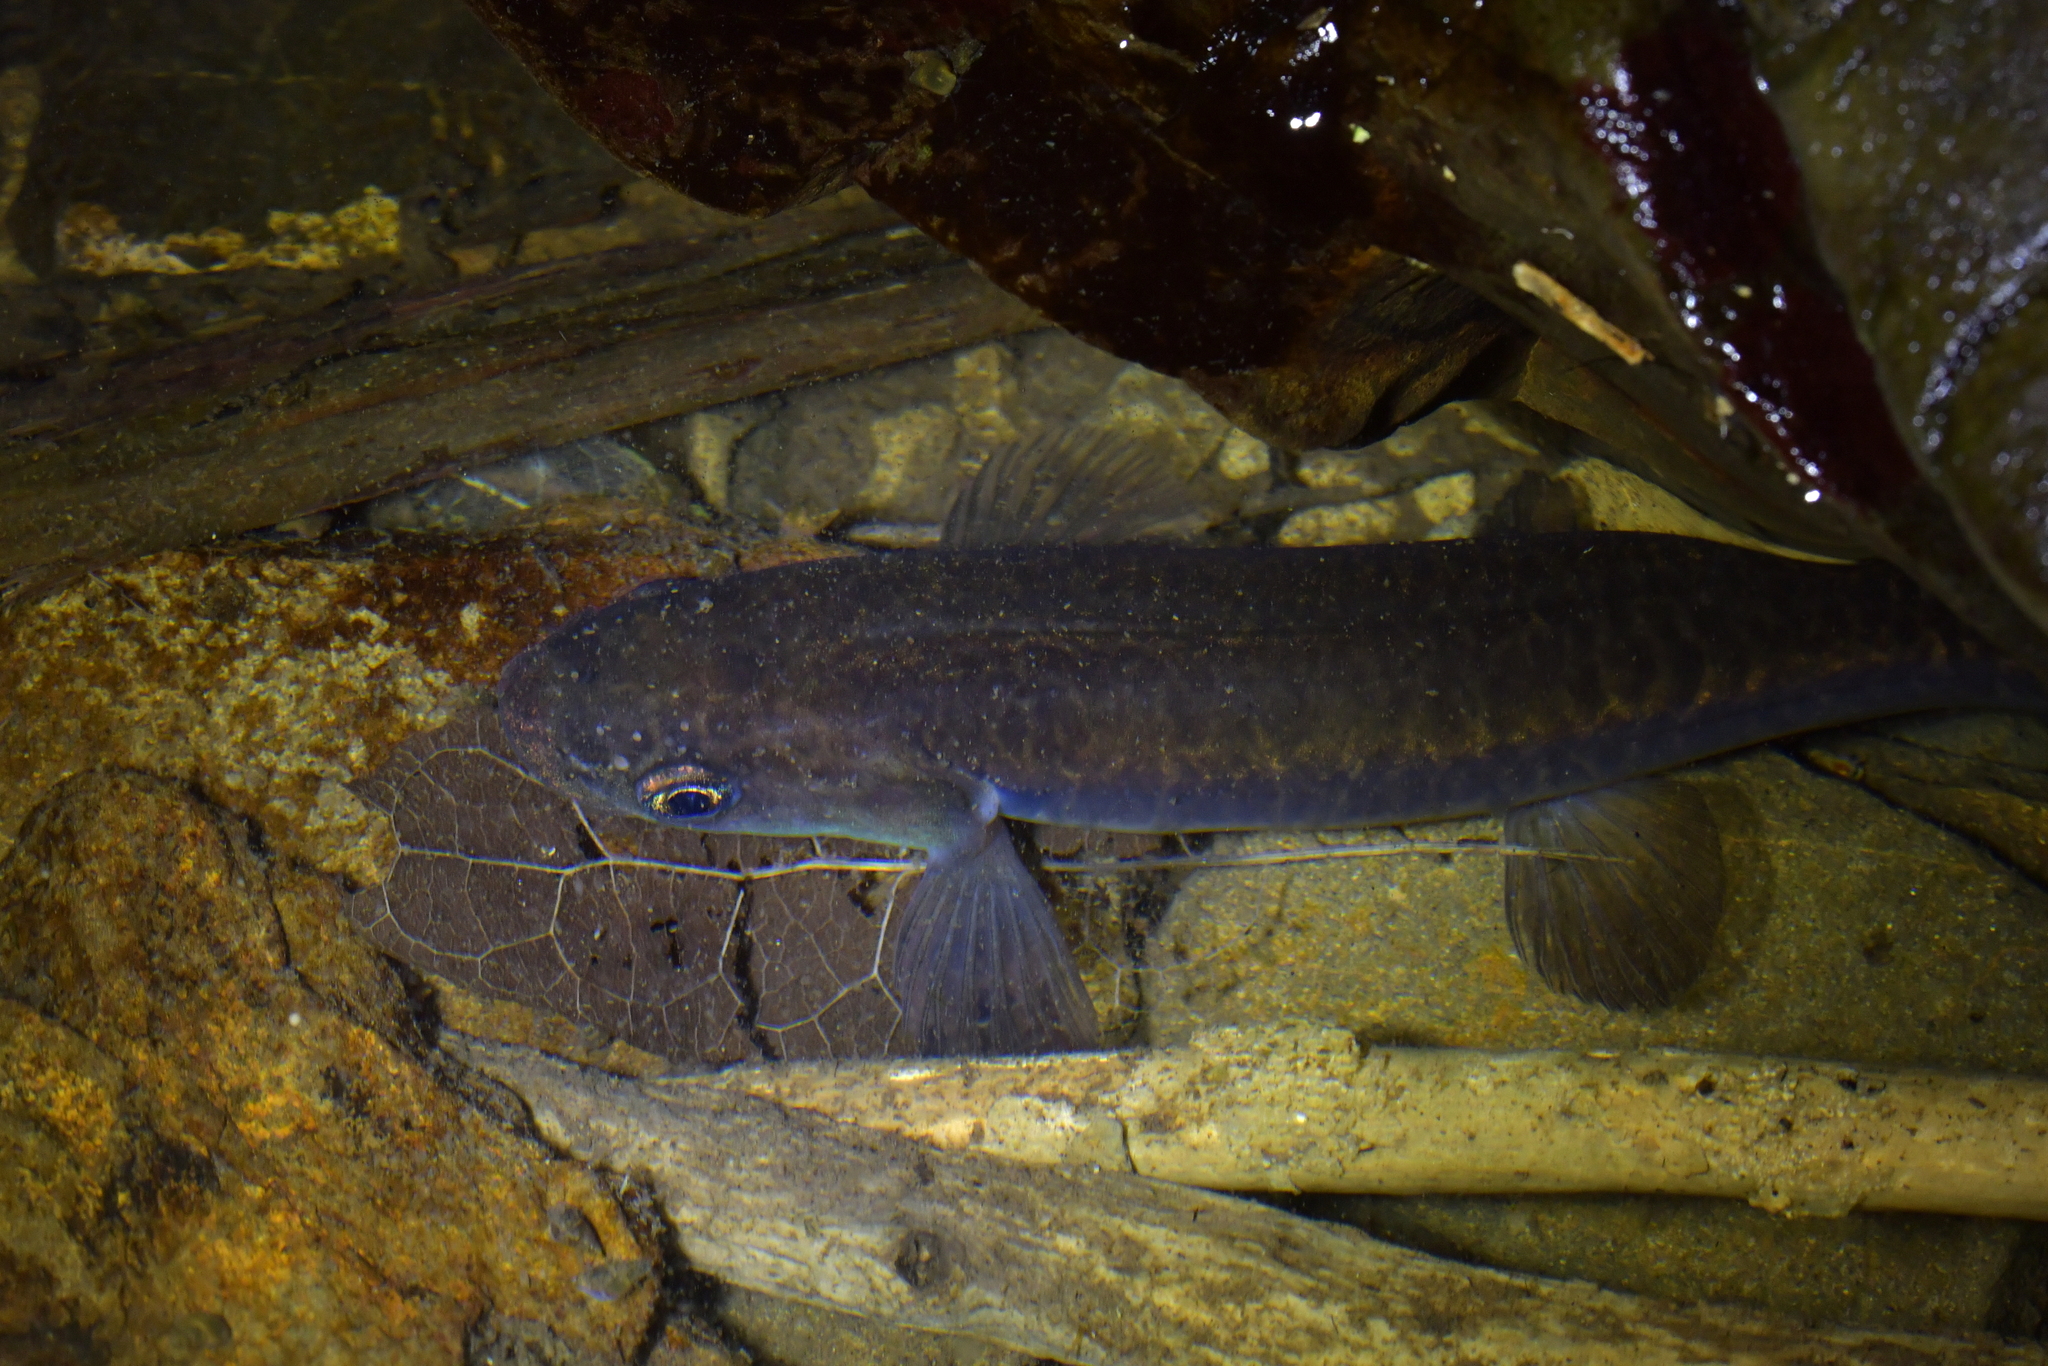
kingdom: Animalia
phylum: Chordata
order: Osmeriformes
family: Galaxiidae
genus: Galaxias
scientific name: Galaxias fasciatus
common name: Banded kokopu
